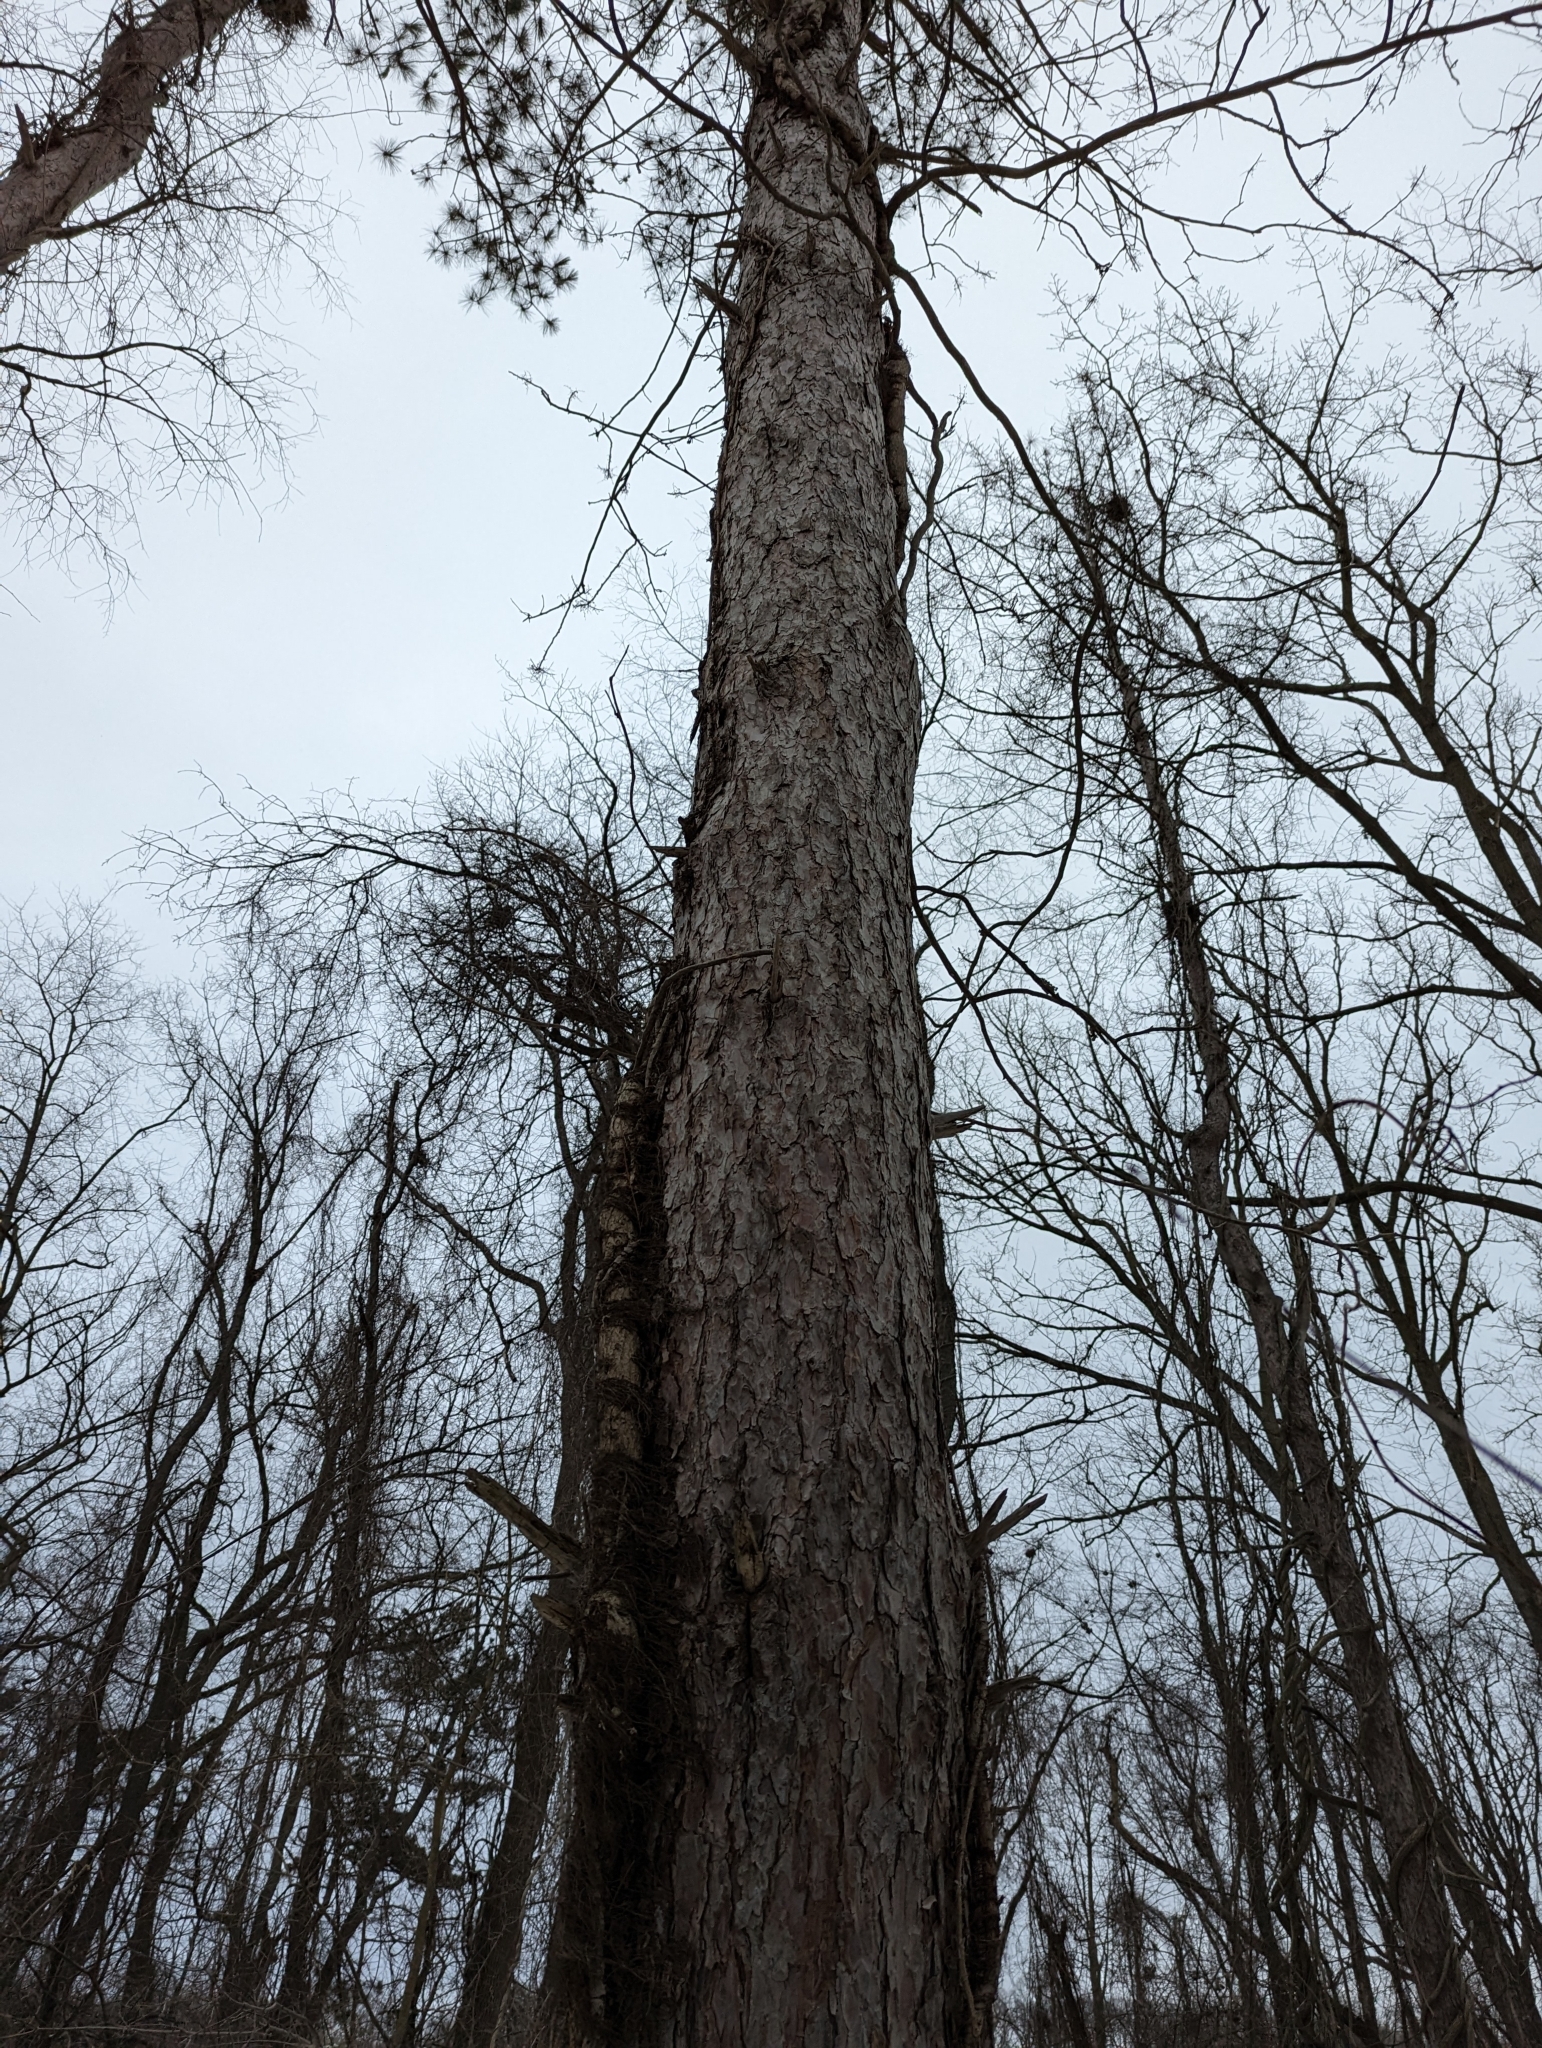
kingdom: Plantae
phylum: Tracheophyta
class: Magnoliopsida
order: Sapindales
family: Anacardiaceae
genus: Toxicodendron
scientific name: Toxicodendron radicans
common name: Poison ivy
